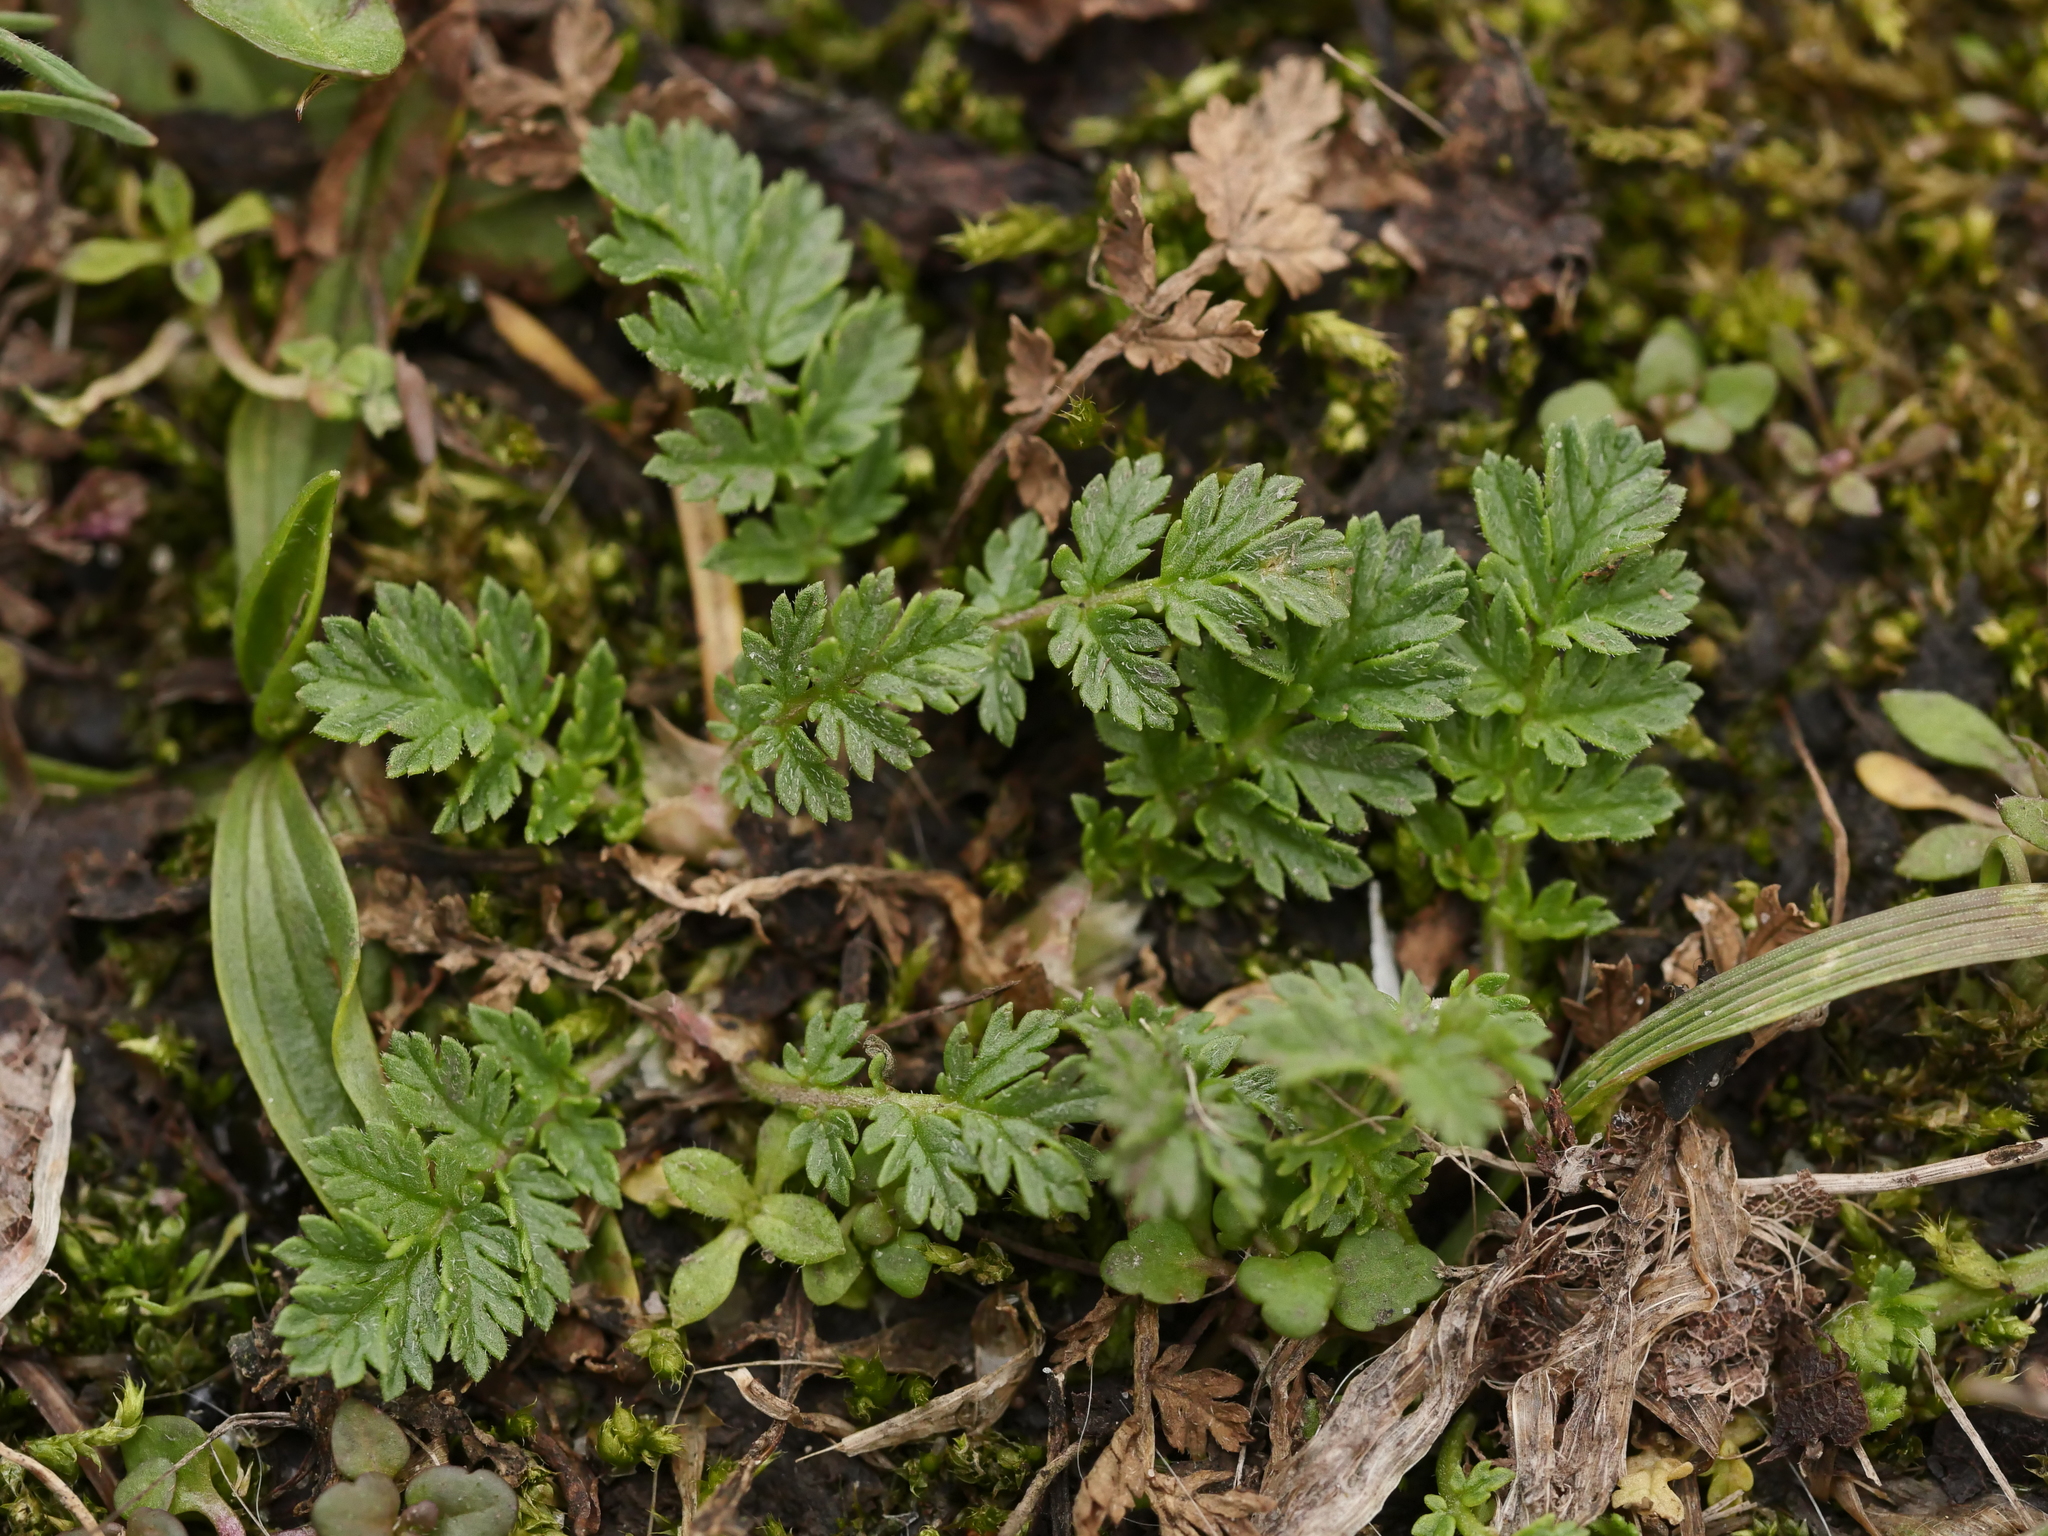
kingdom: Plantae
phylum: Tracheophyta
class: Magnoliopsida
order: Geraniales
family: Geraniaceae
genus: Erodium
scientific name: Erodium cicutarium
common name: Common stork's-bill
